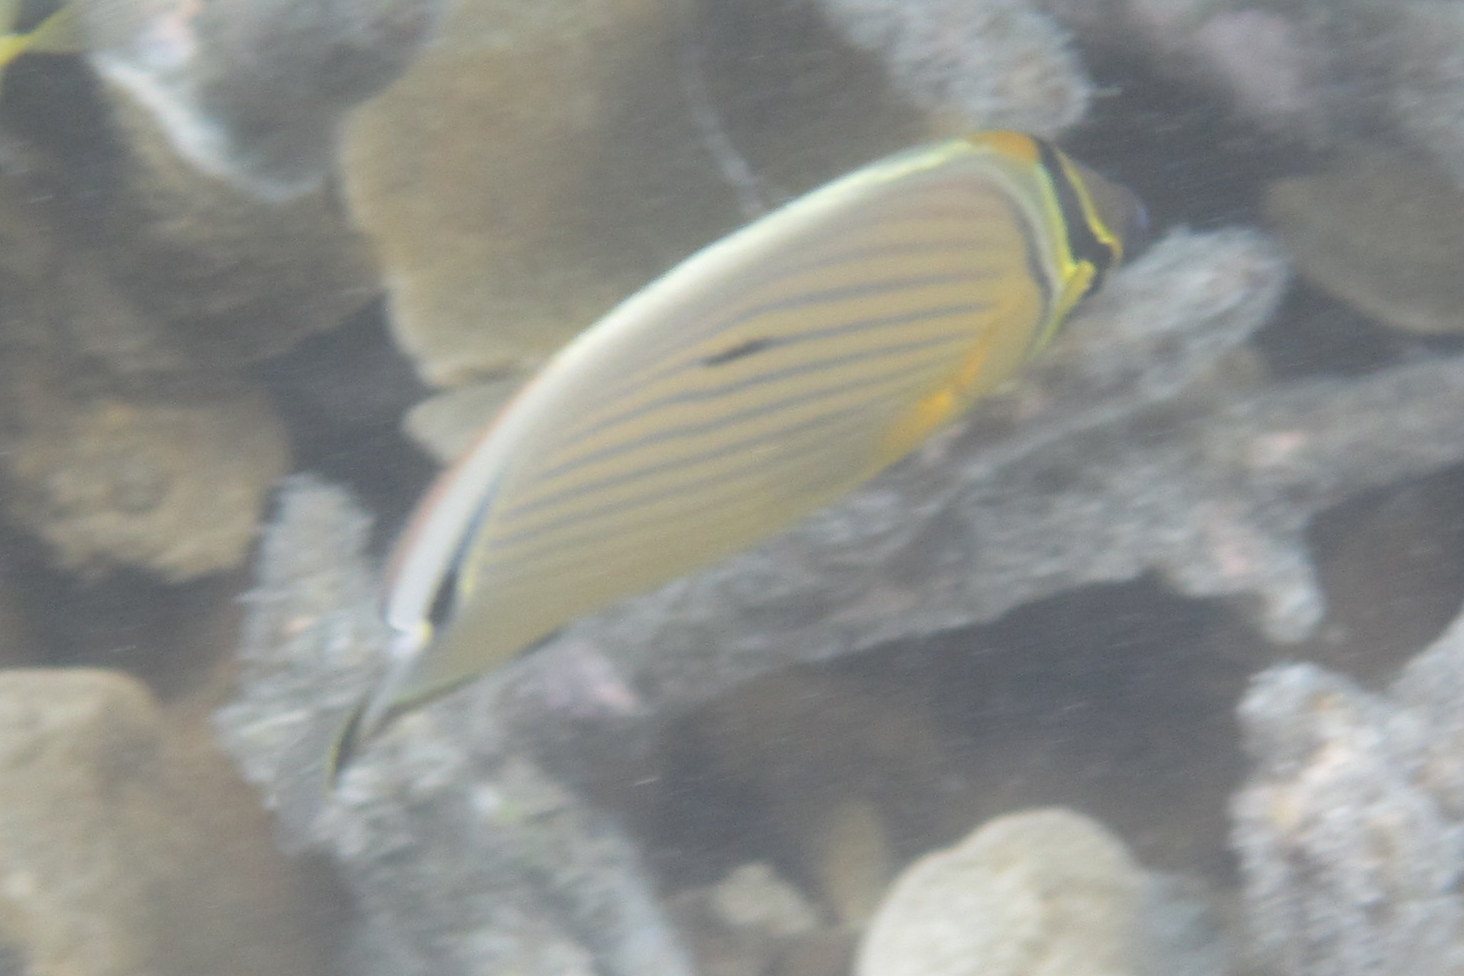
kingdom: Animalia
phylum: Chordata
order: Perciformes
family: Chaetodontidae
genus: Chaetodon
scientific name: Chaetodon lunulatus
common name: Redfin butterflyfish
